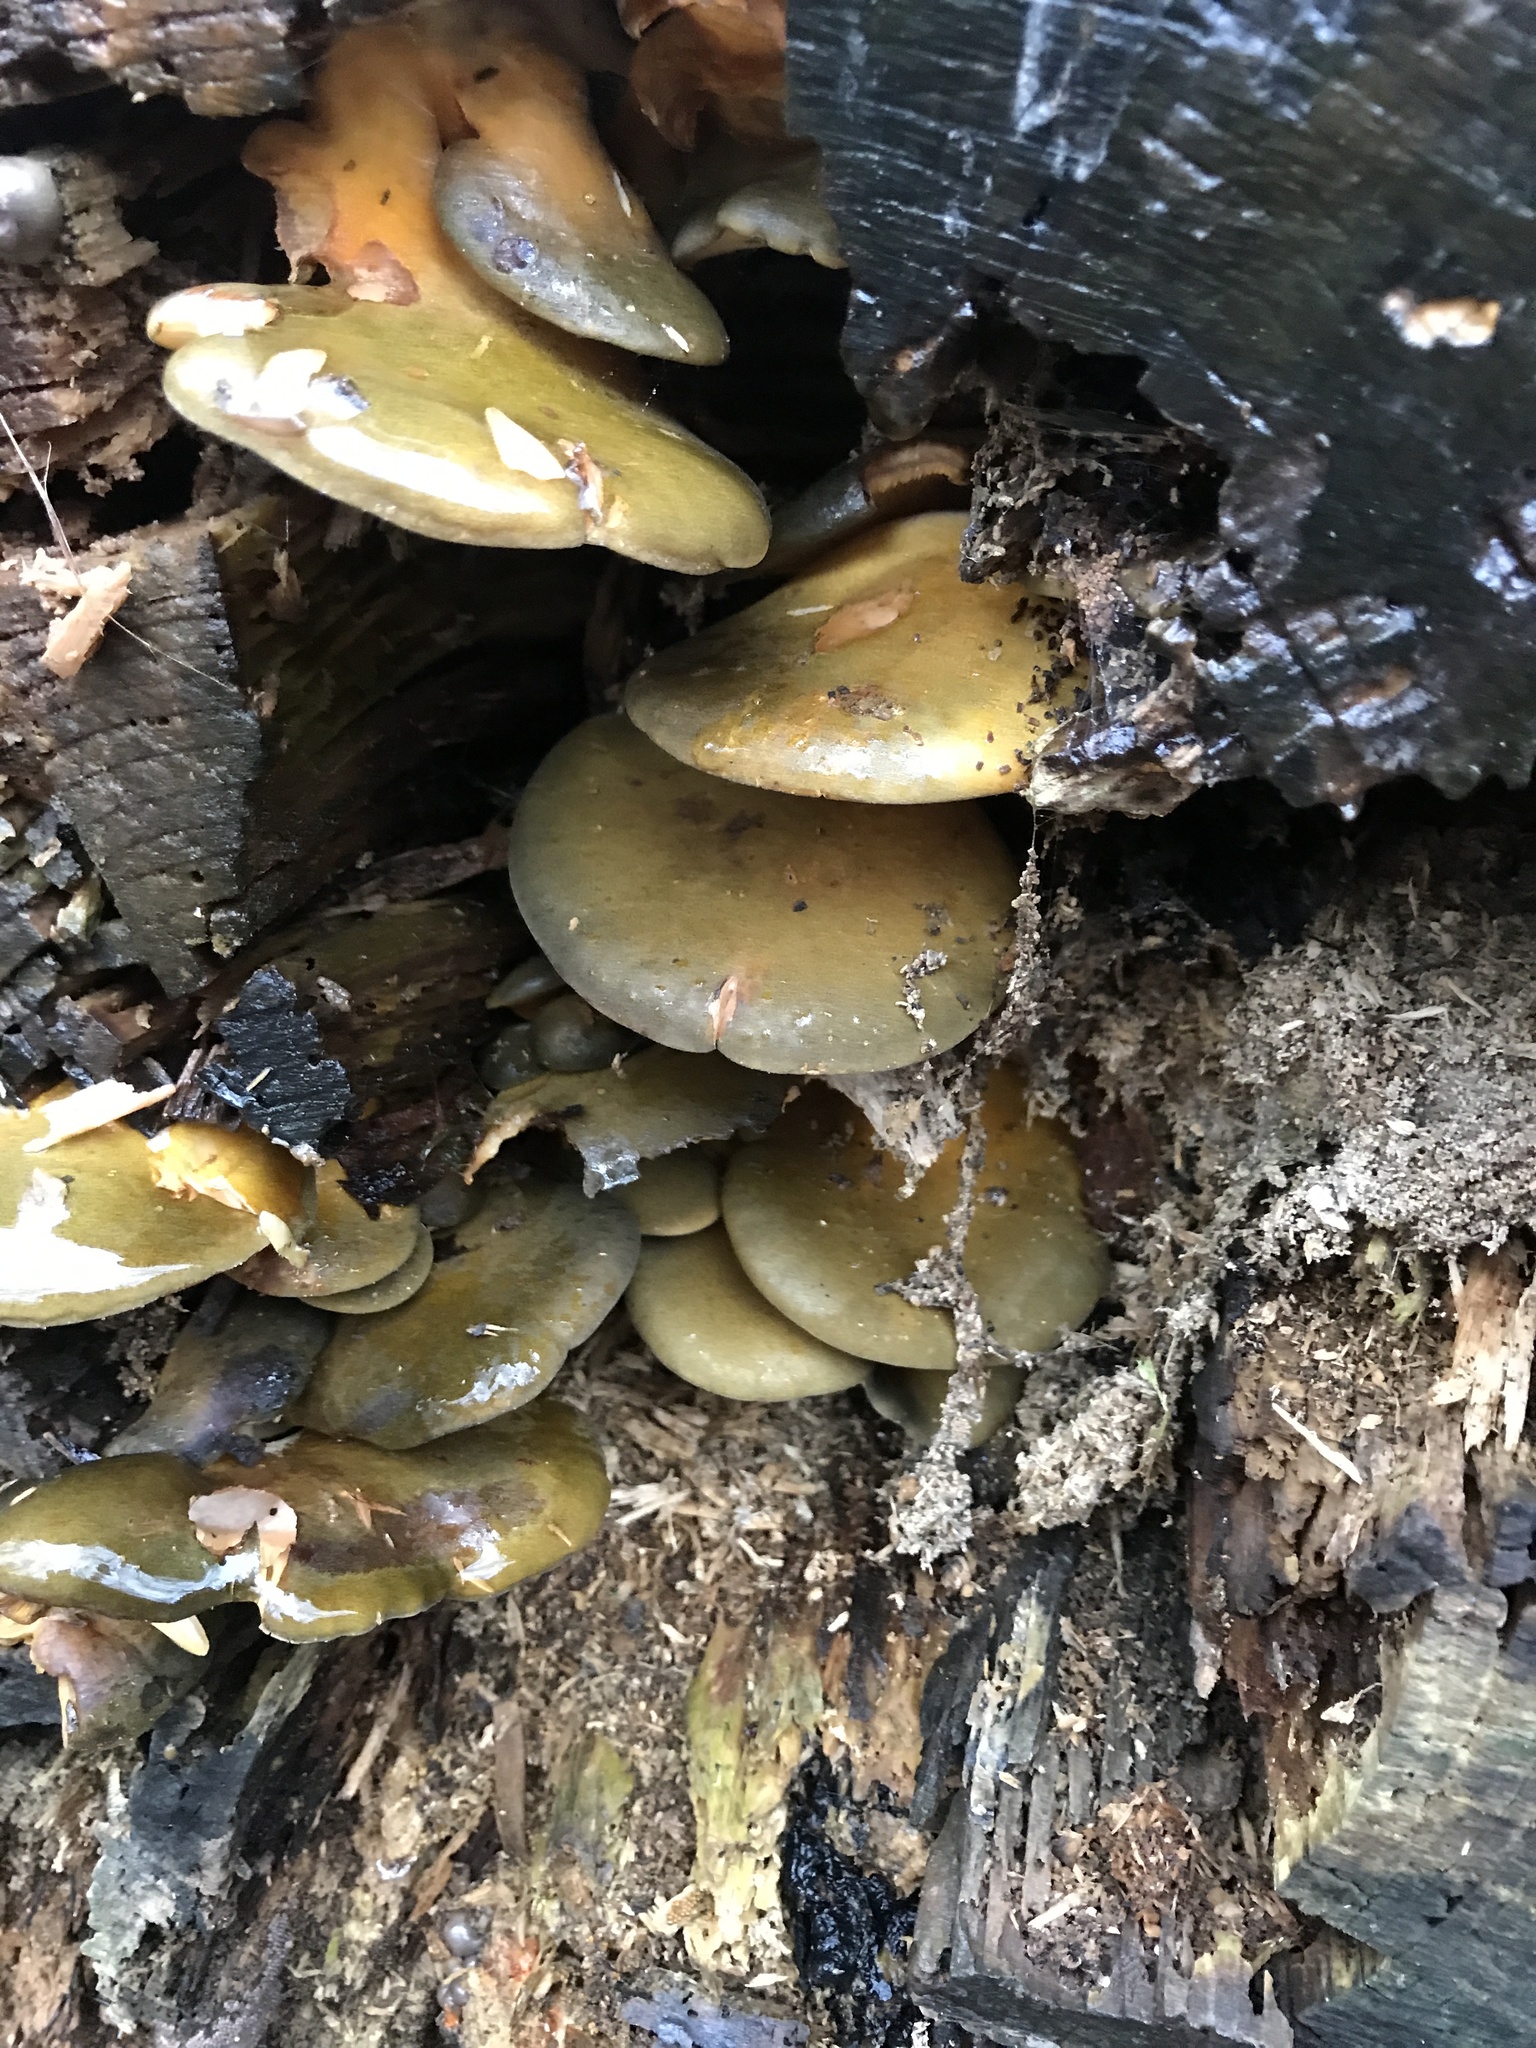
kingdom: Fungi
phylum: Basidiomycota
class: Agaricomycetes
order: Agaricales
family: Sarcomyxaceae
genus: Sarcomyxa
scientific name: Sarcomyxa serotina
